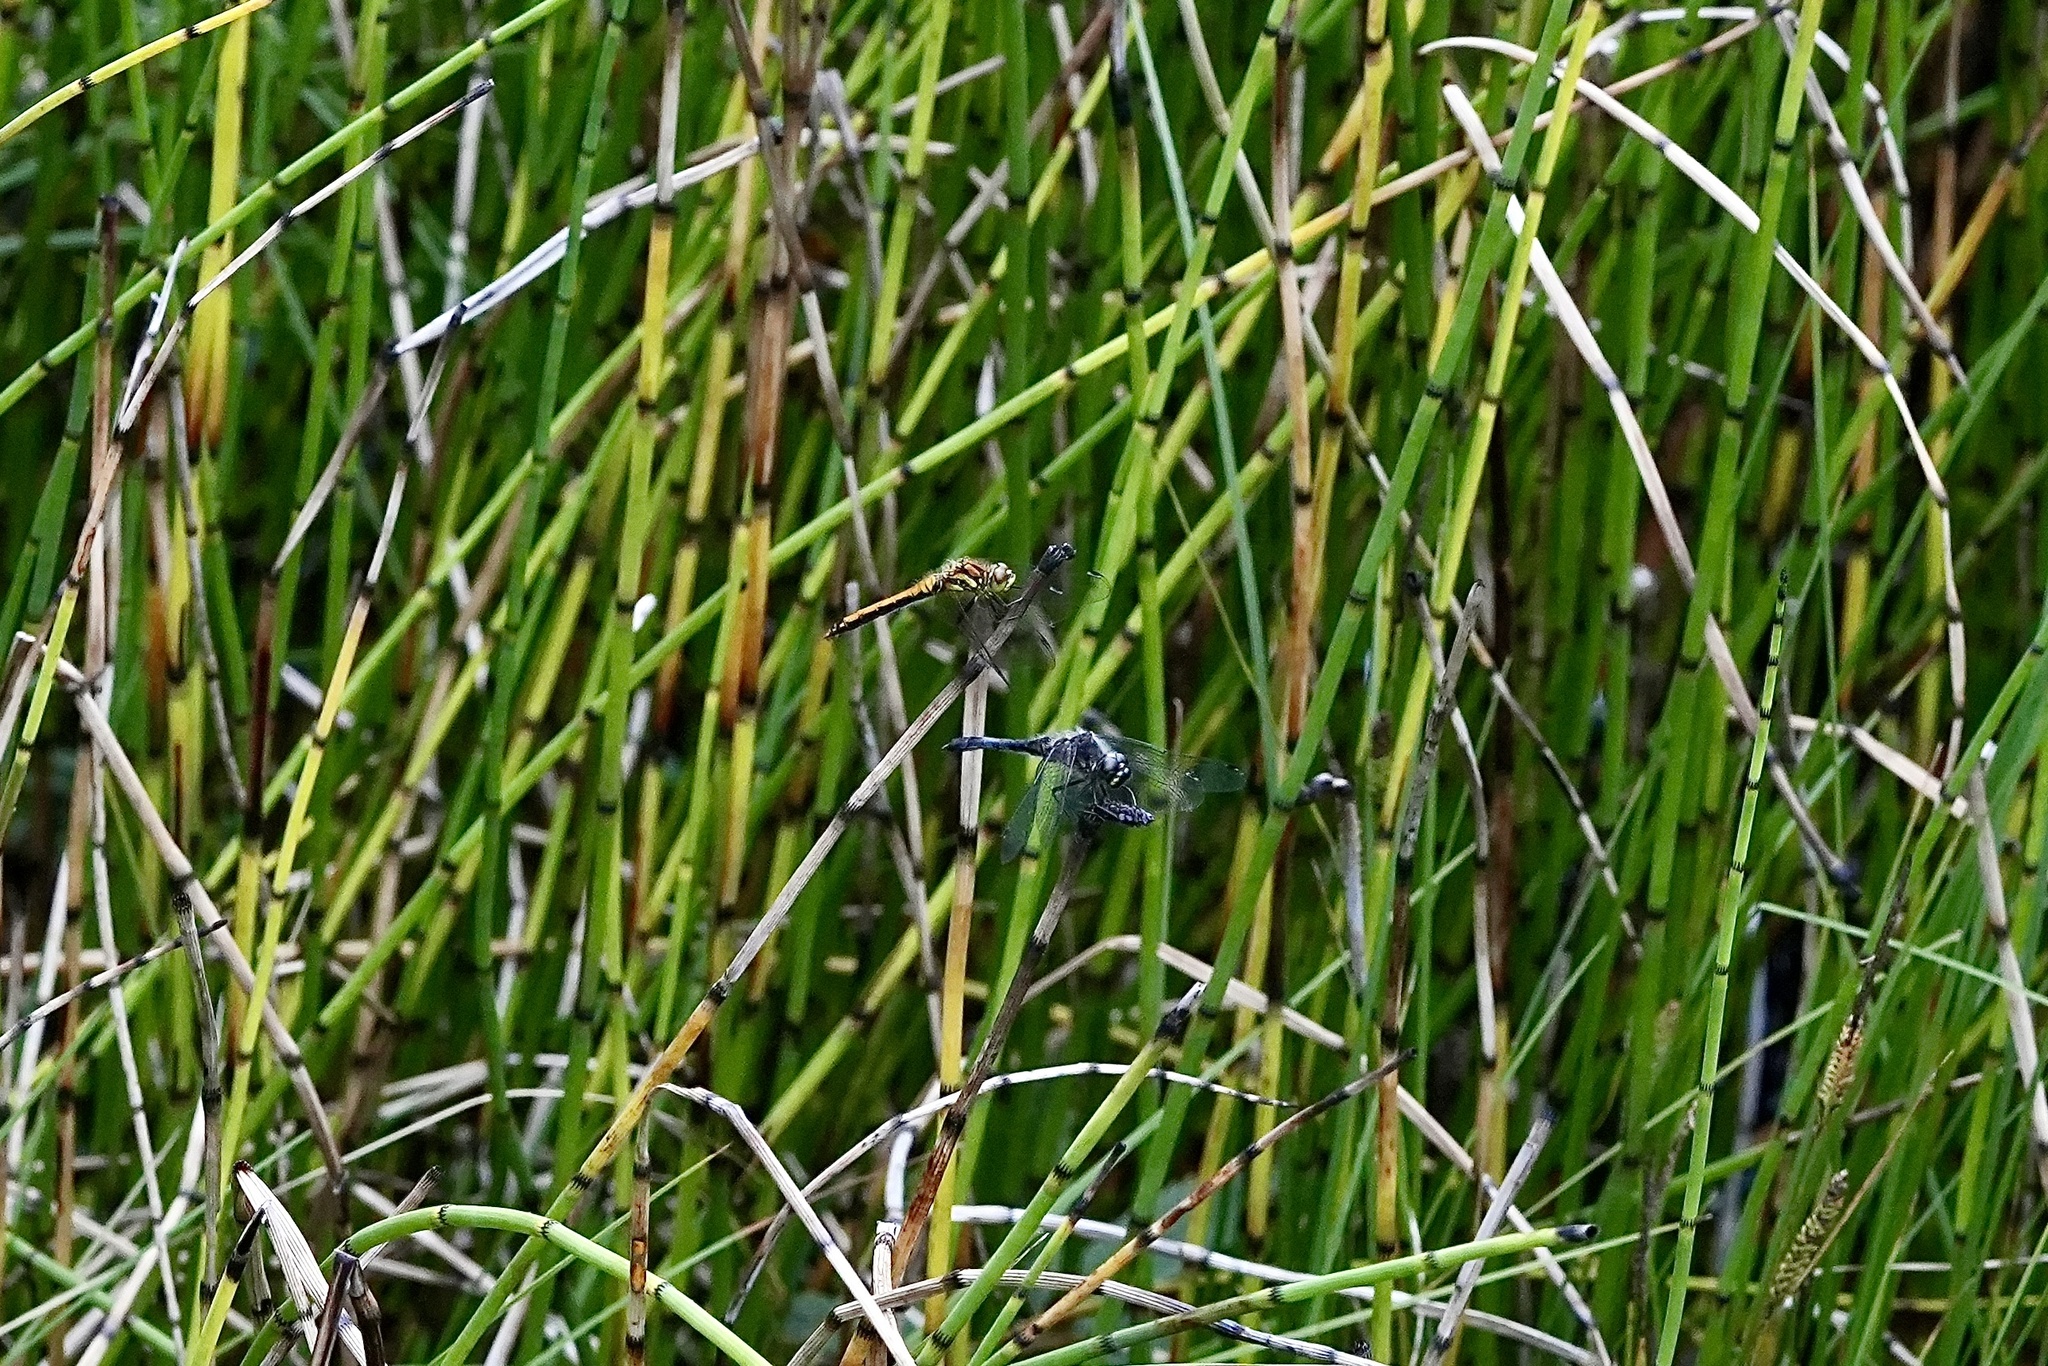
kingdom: Animalia
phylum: Arthropoda
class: Insecta
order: Odonata
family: Libellulidae
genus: Sympetrum
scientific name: Sympetrum danae
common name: Black darter
